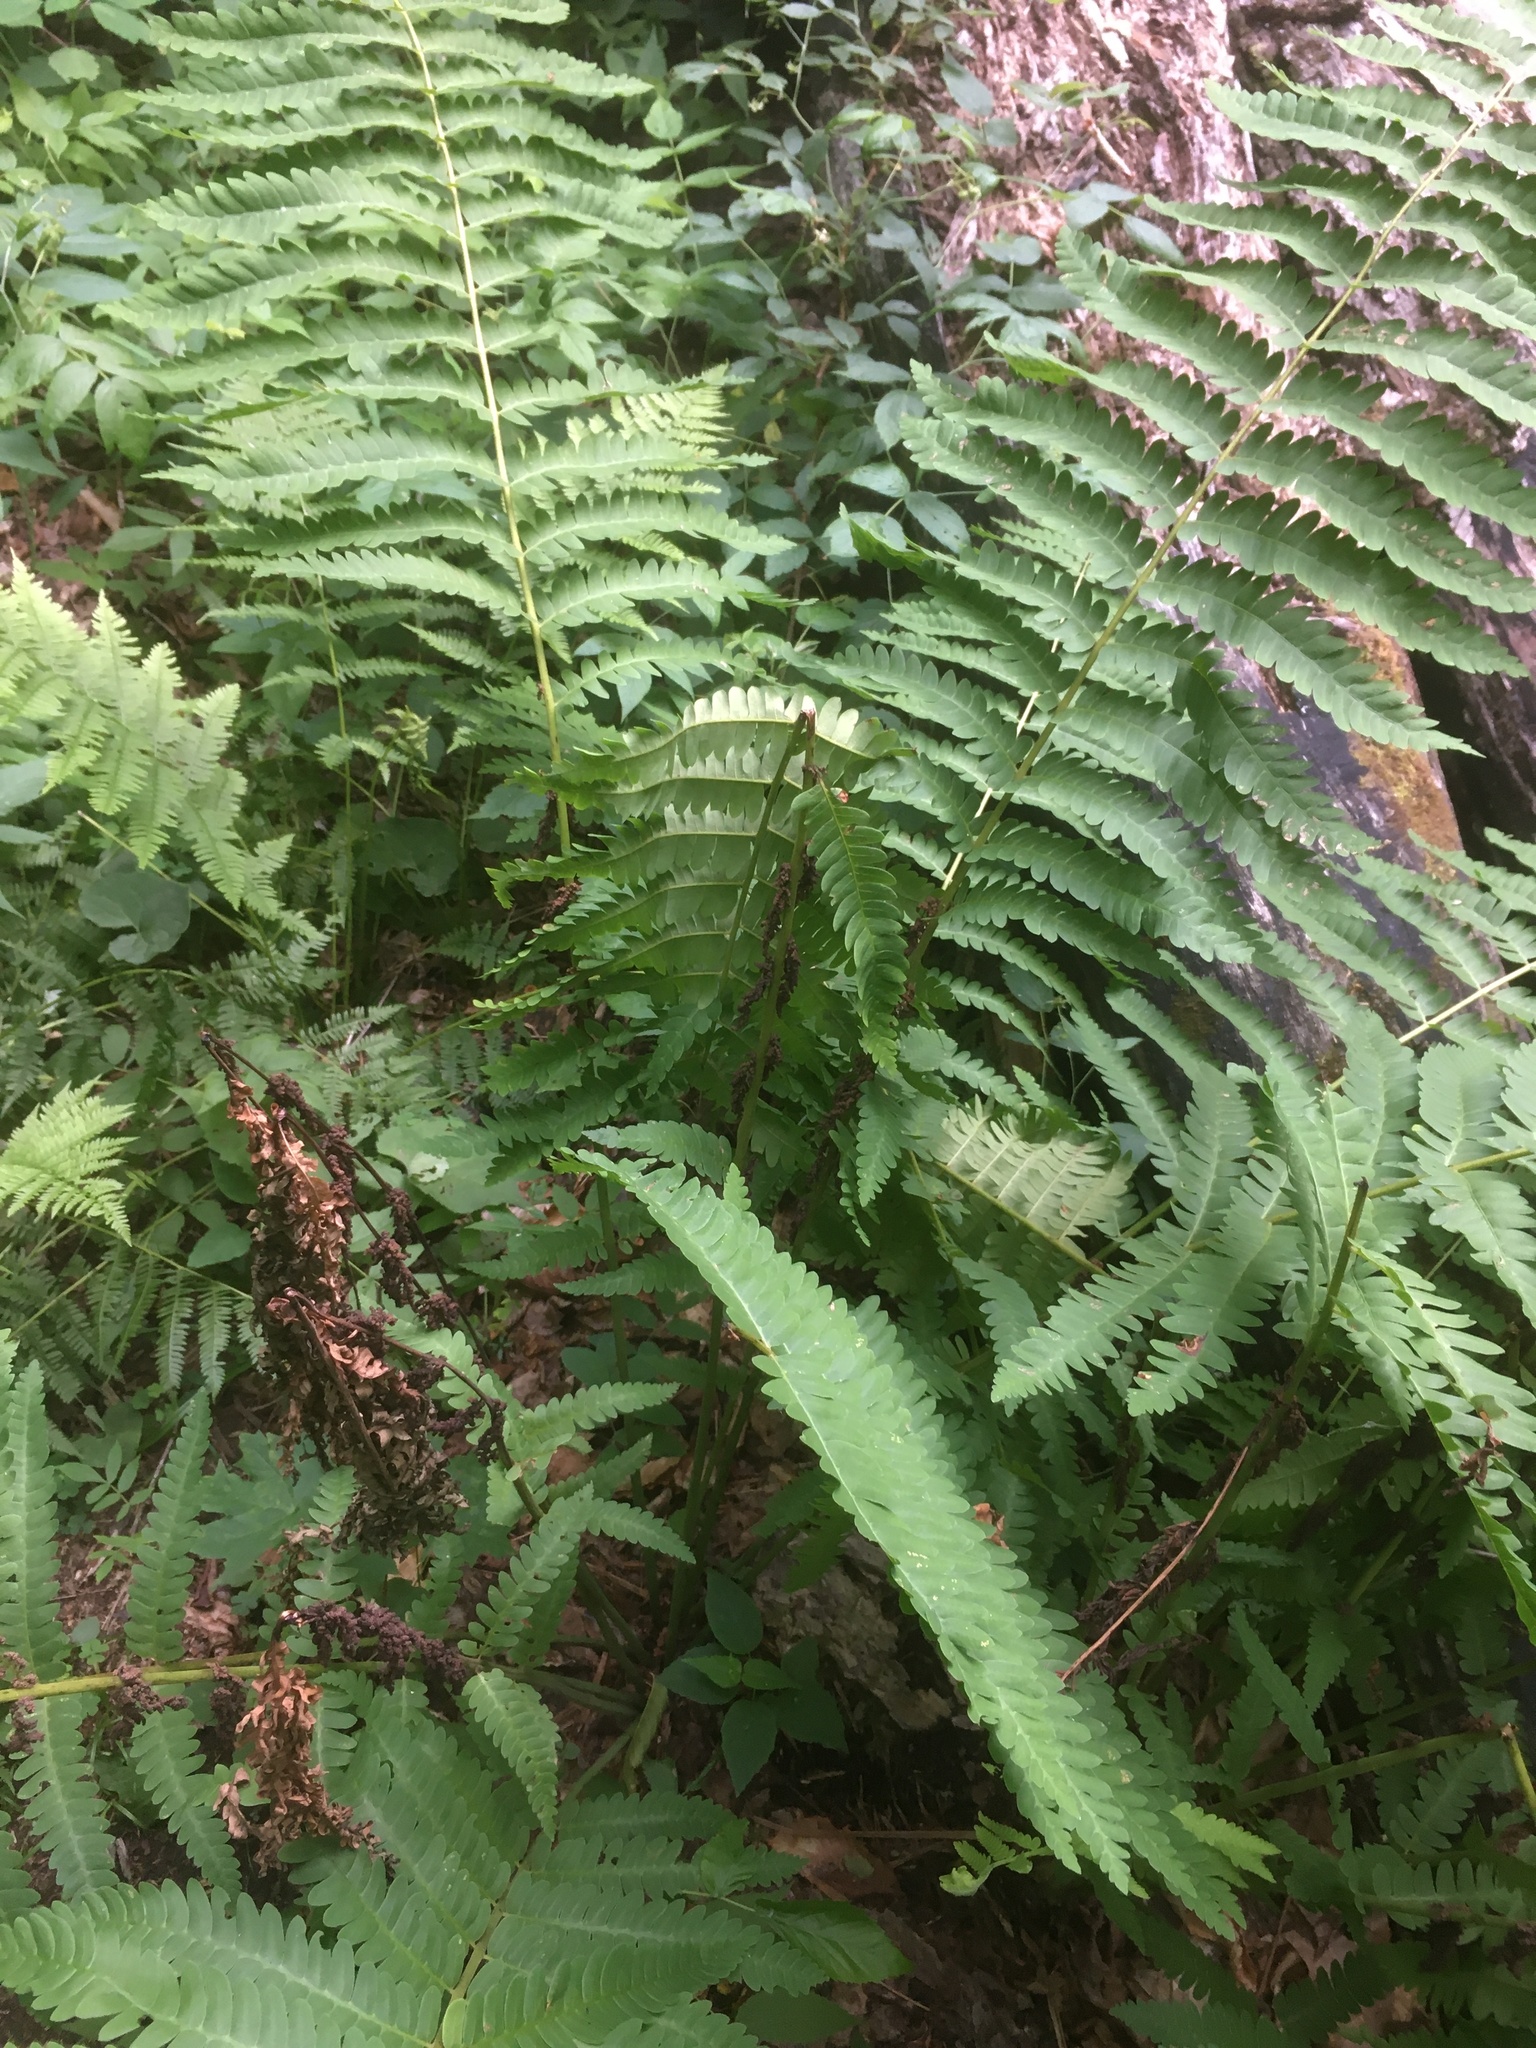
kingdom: Plantae
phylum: Tracheophyta
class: Polypodiopsida
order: Osmundales
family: Osmundaceae
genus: Claytosmunda
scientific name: Claytosmunda claytoniana
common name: Clayton's fern
